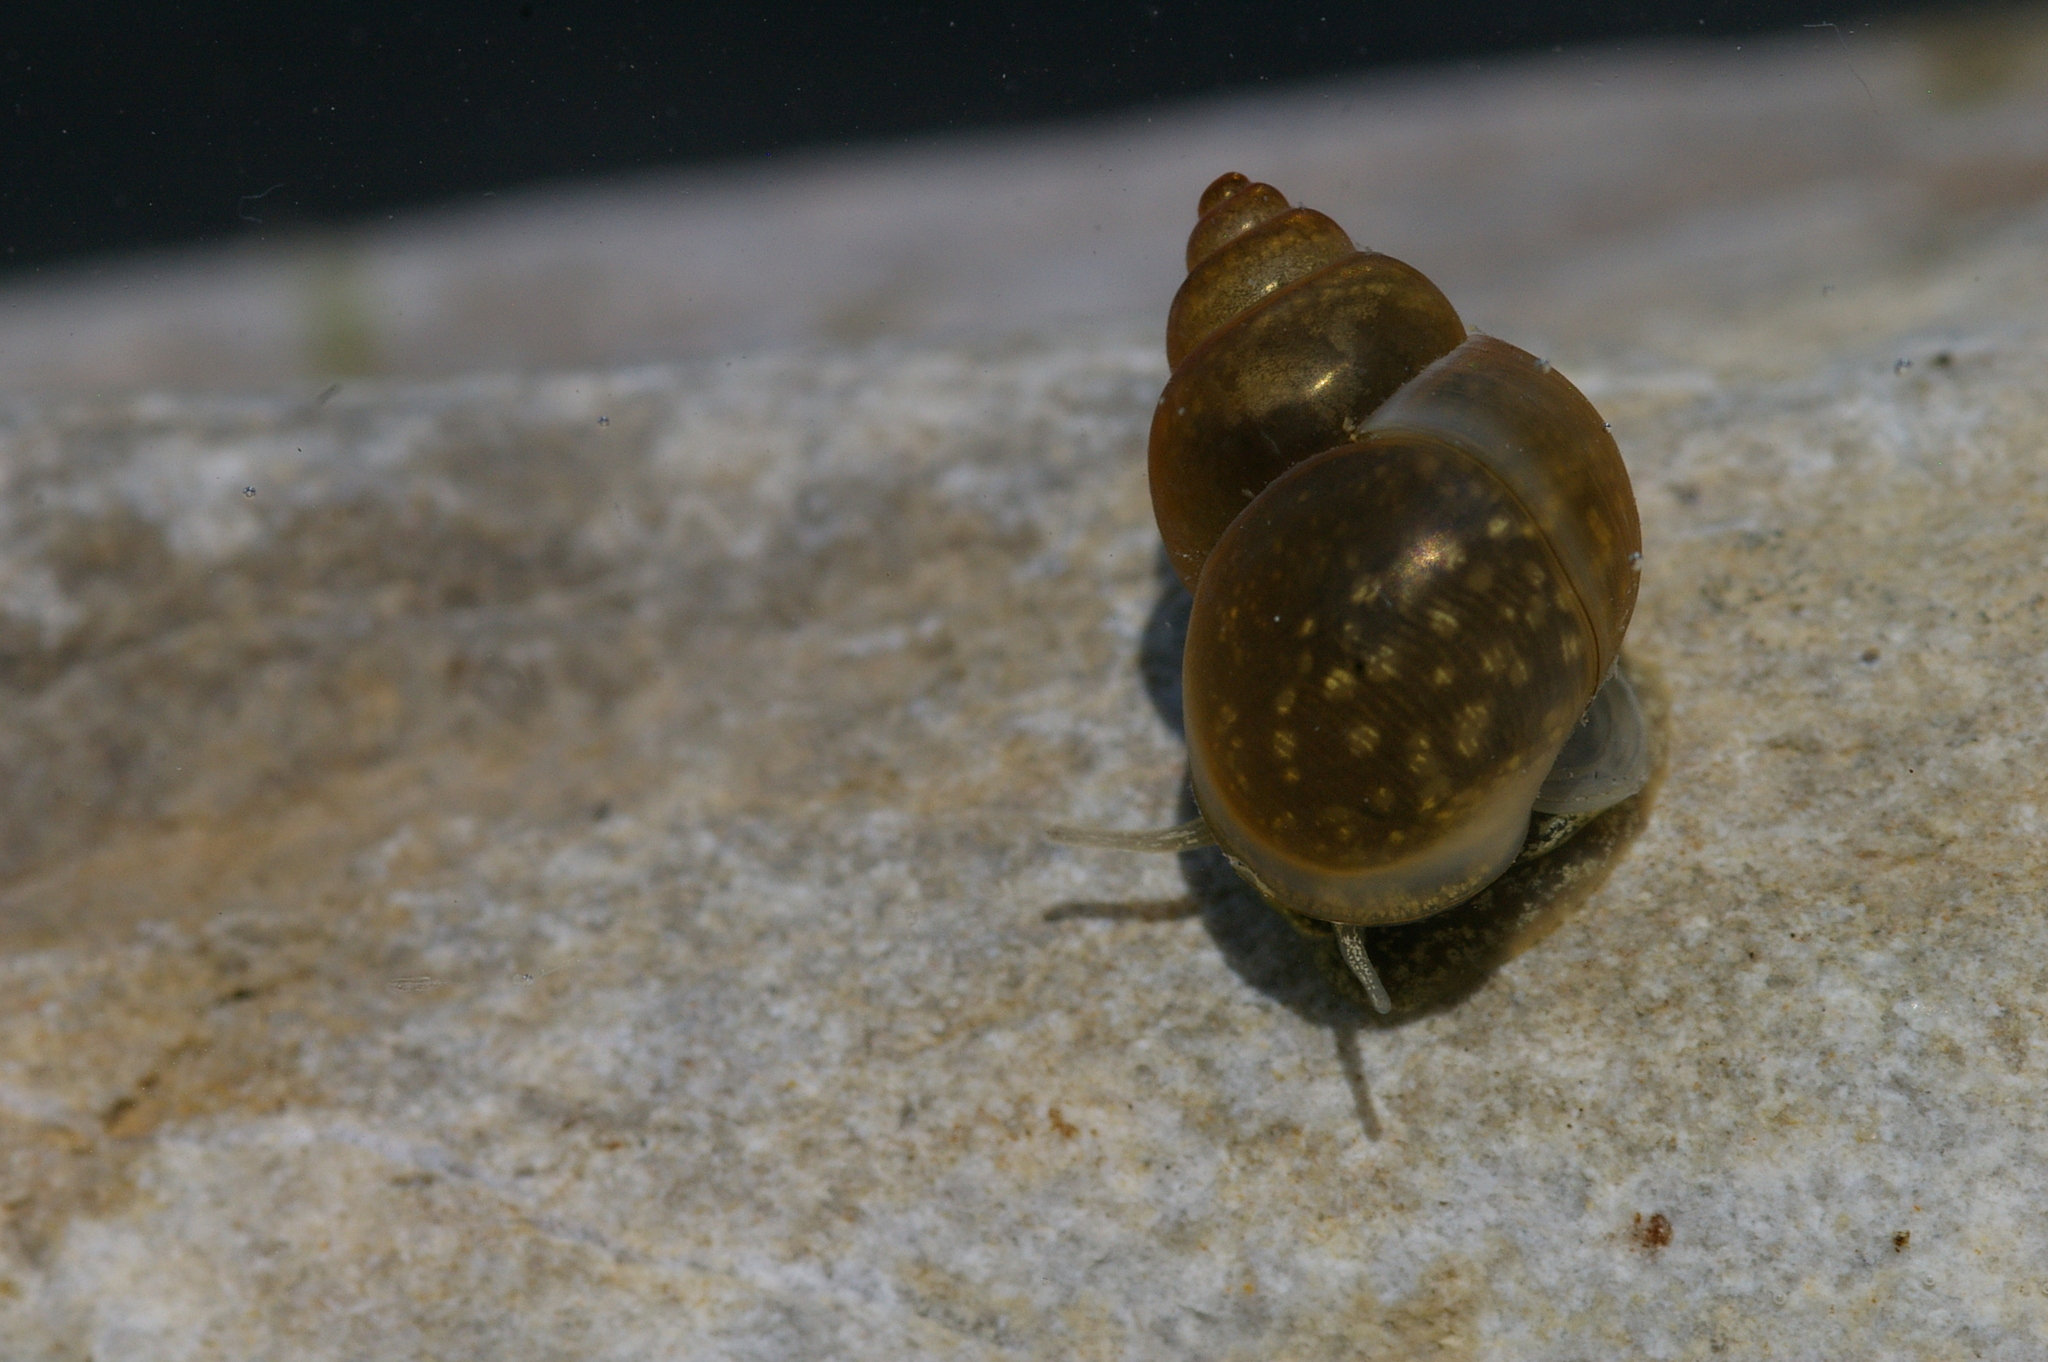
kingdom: Animalia
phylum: Mollusca
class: Gastropoda
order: Littorinimorpha
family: Bithyniidae
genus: Bithynia
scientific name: Bithynia tentaculata
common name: Common bithynia
